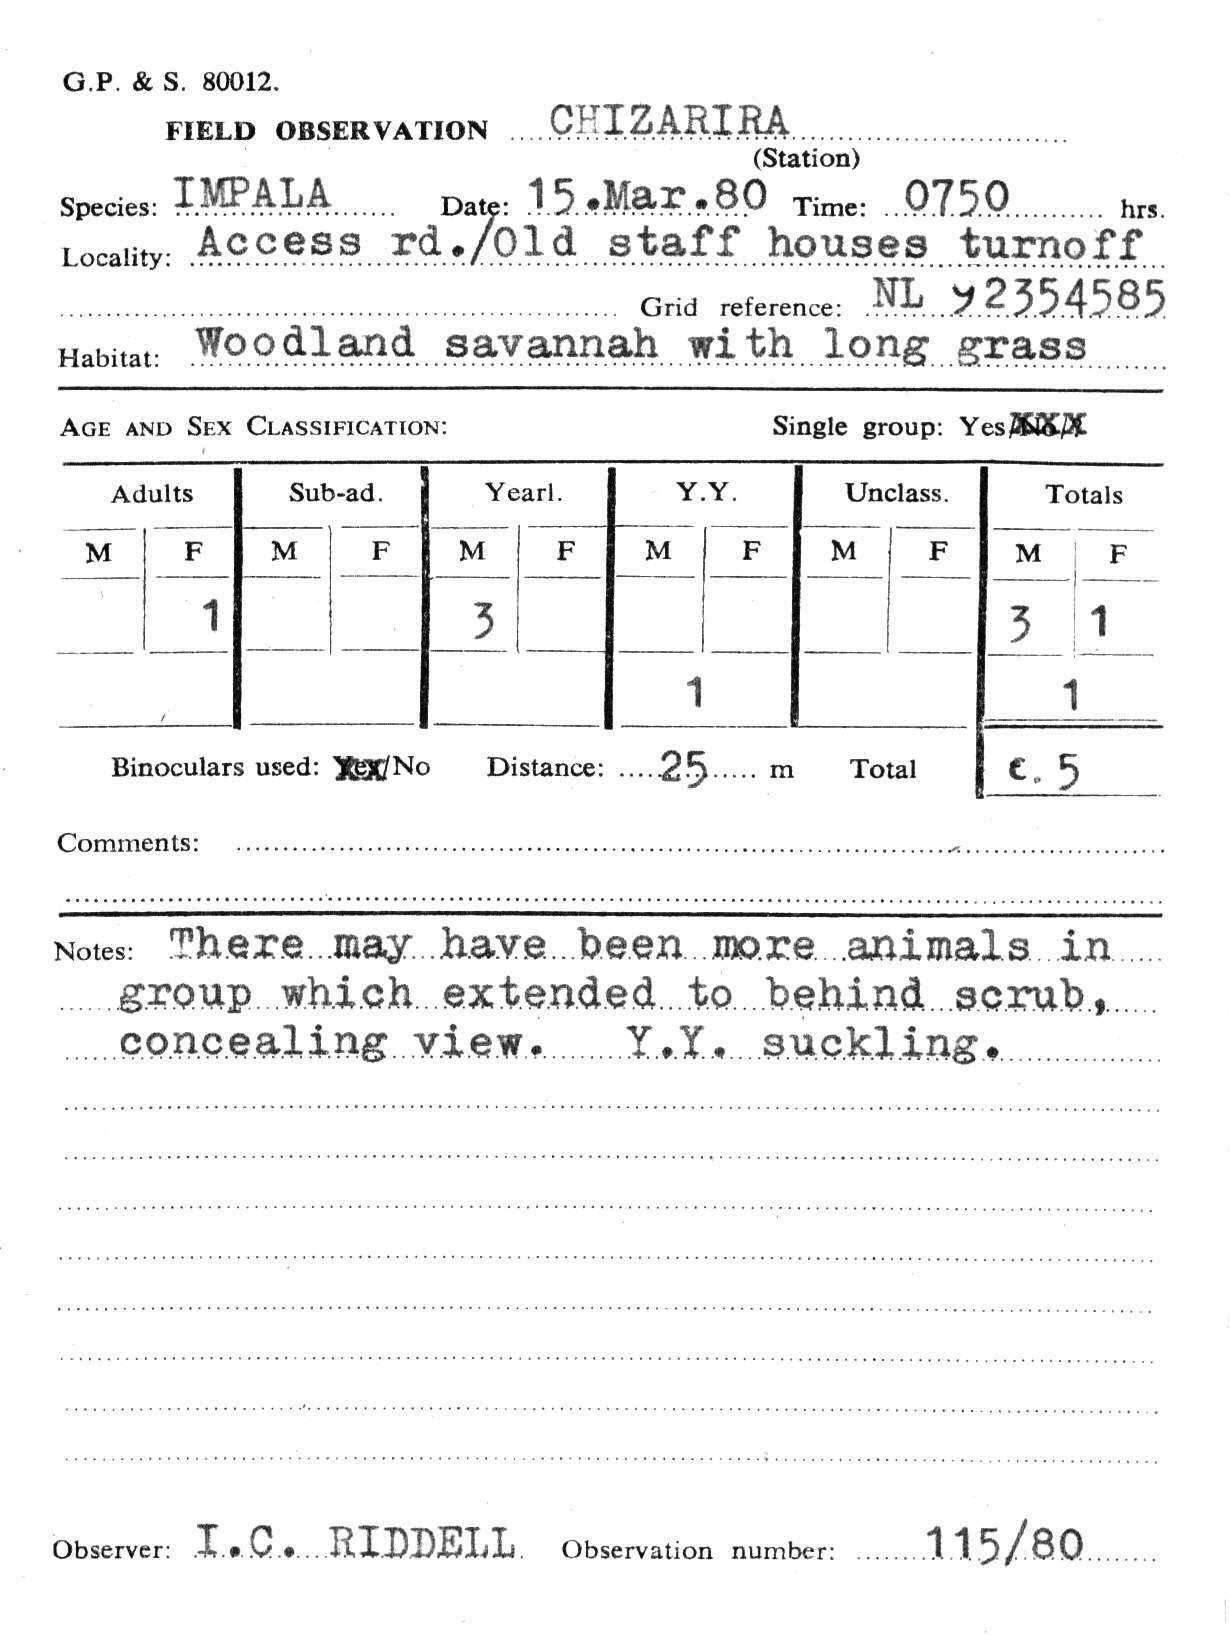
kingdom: Animalia
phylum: Chordata
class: Mammalia
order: Artiodactyla
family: Bovidae
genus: Aepyceros
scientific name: Aepyceros melampus
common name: Impala
